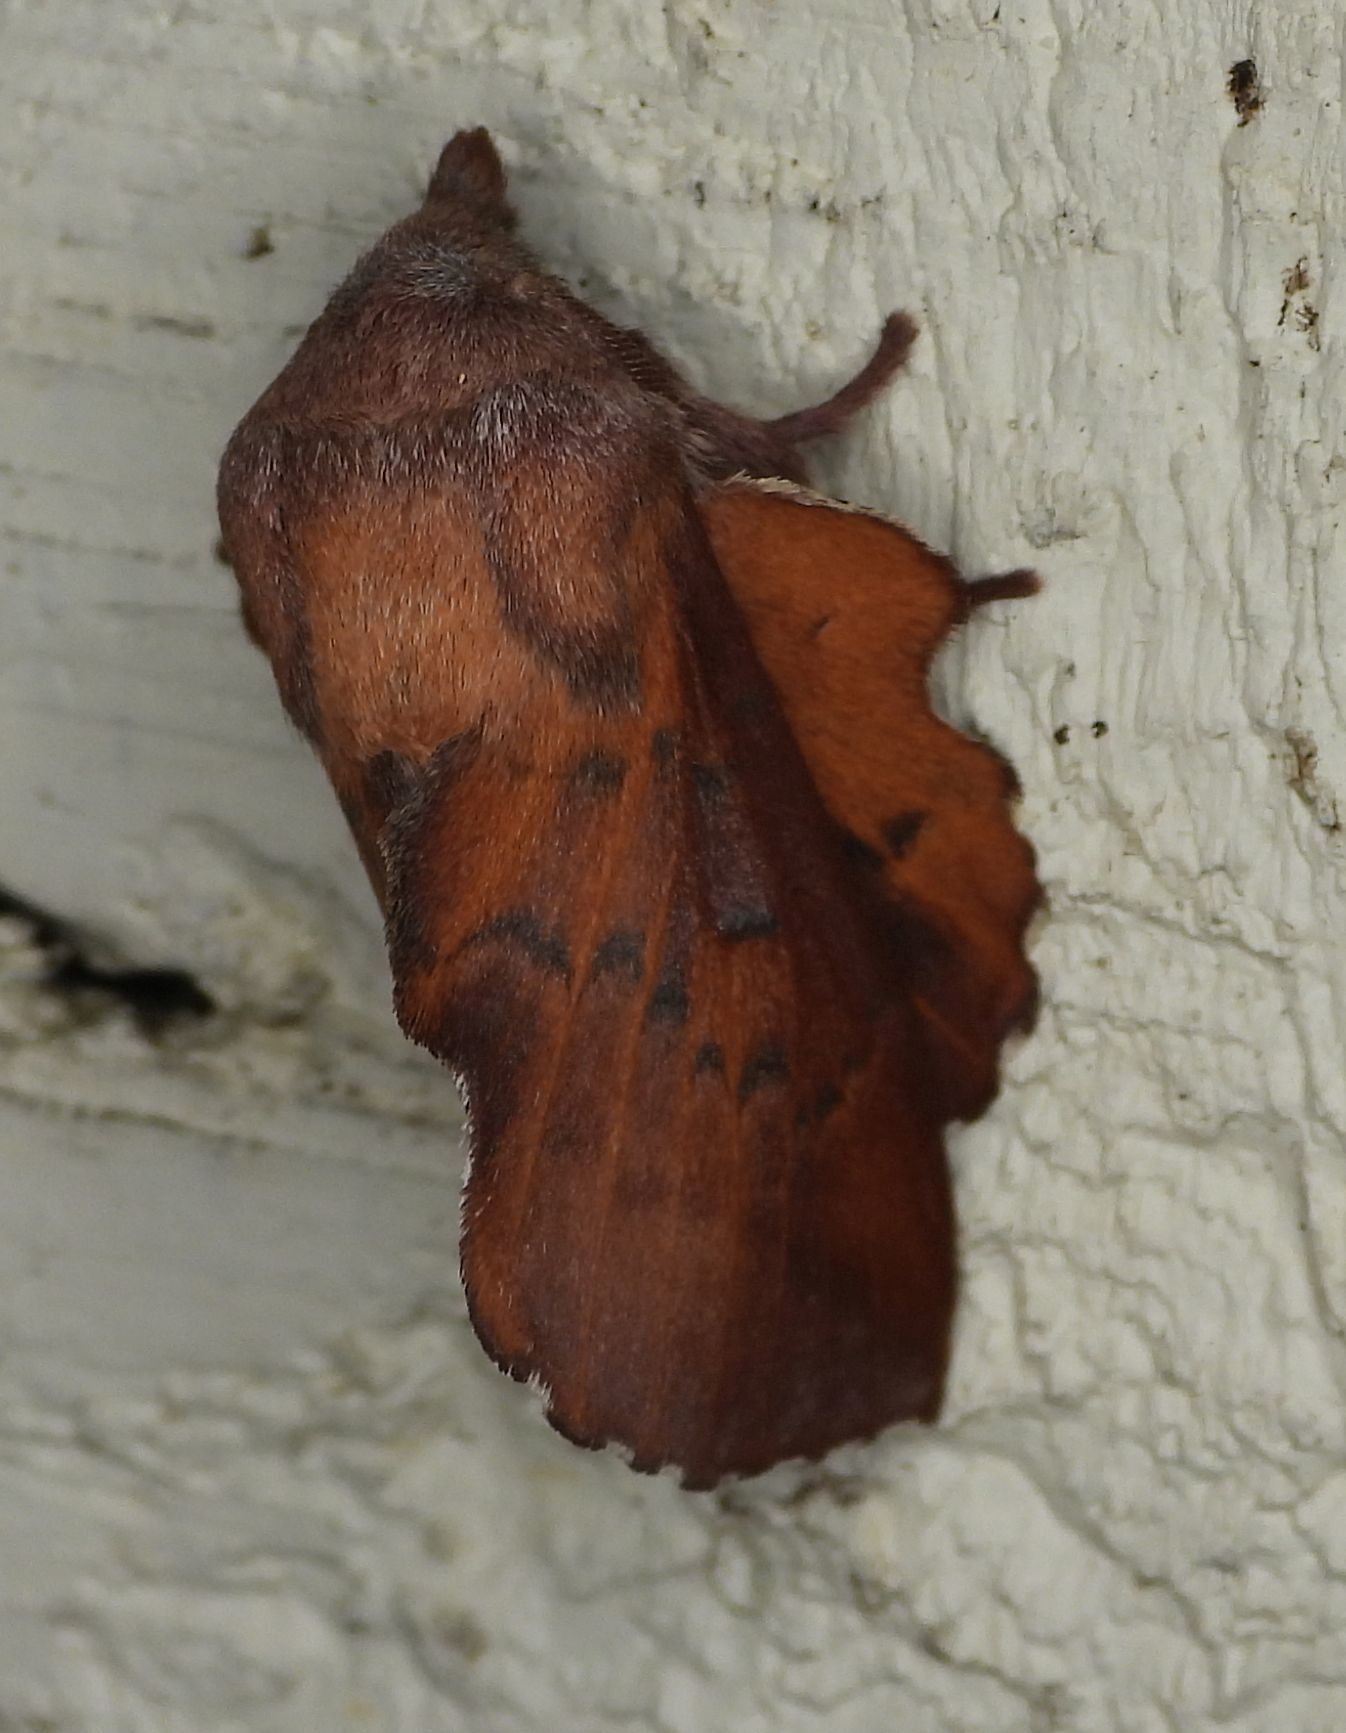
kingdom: Animalia
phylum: Arthropoda
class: Insecta
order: Lepidoptera
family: Lasiocampidae
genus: Phyllodesma
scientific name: Phyllodesma americana
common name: American lappet moth
